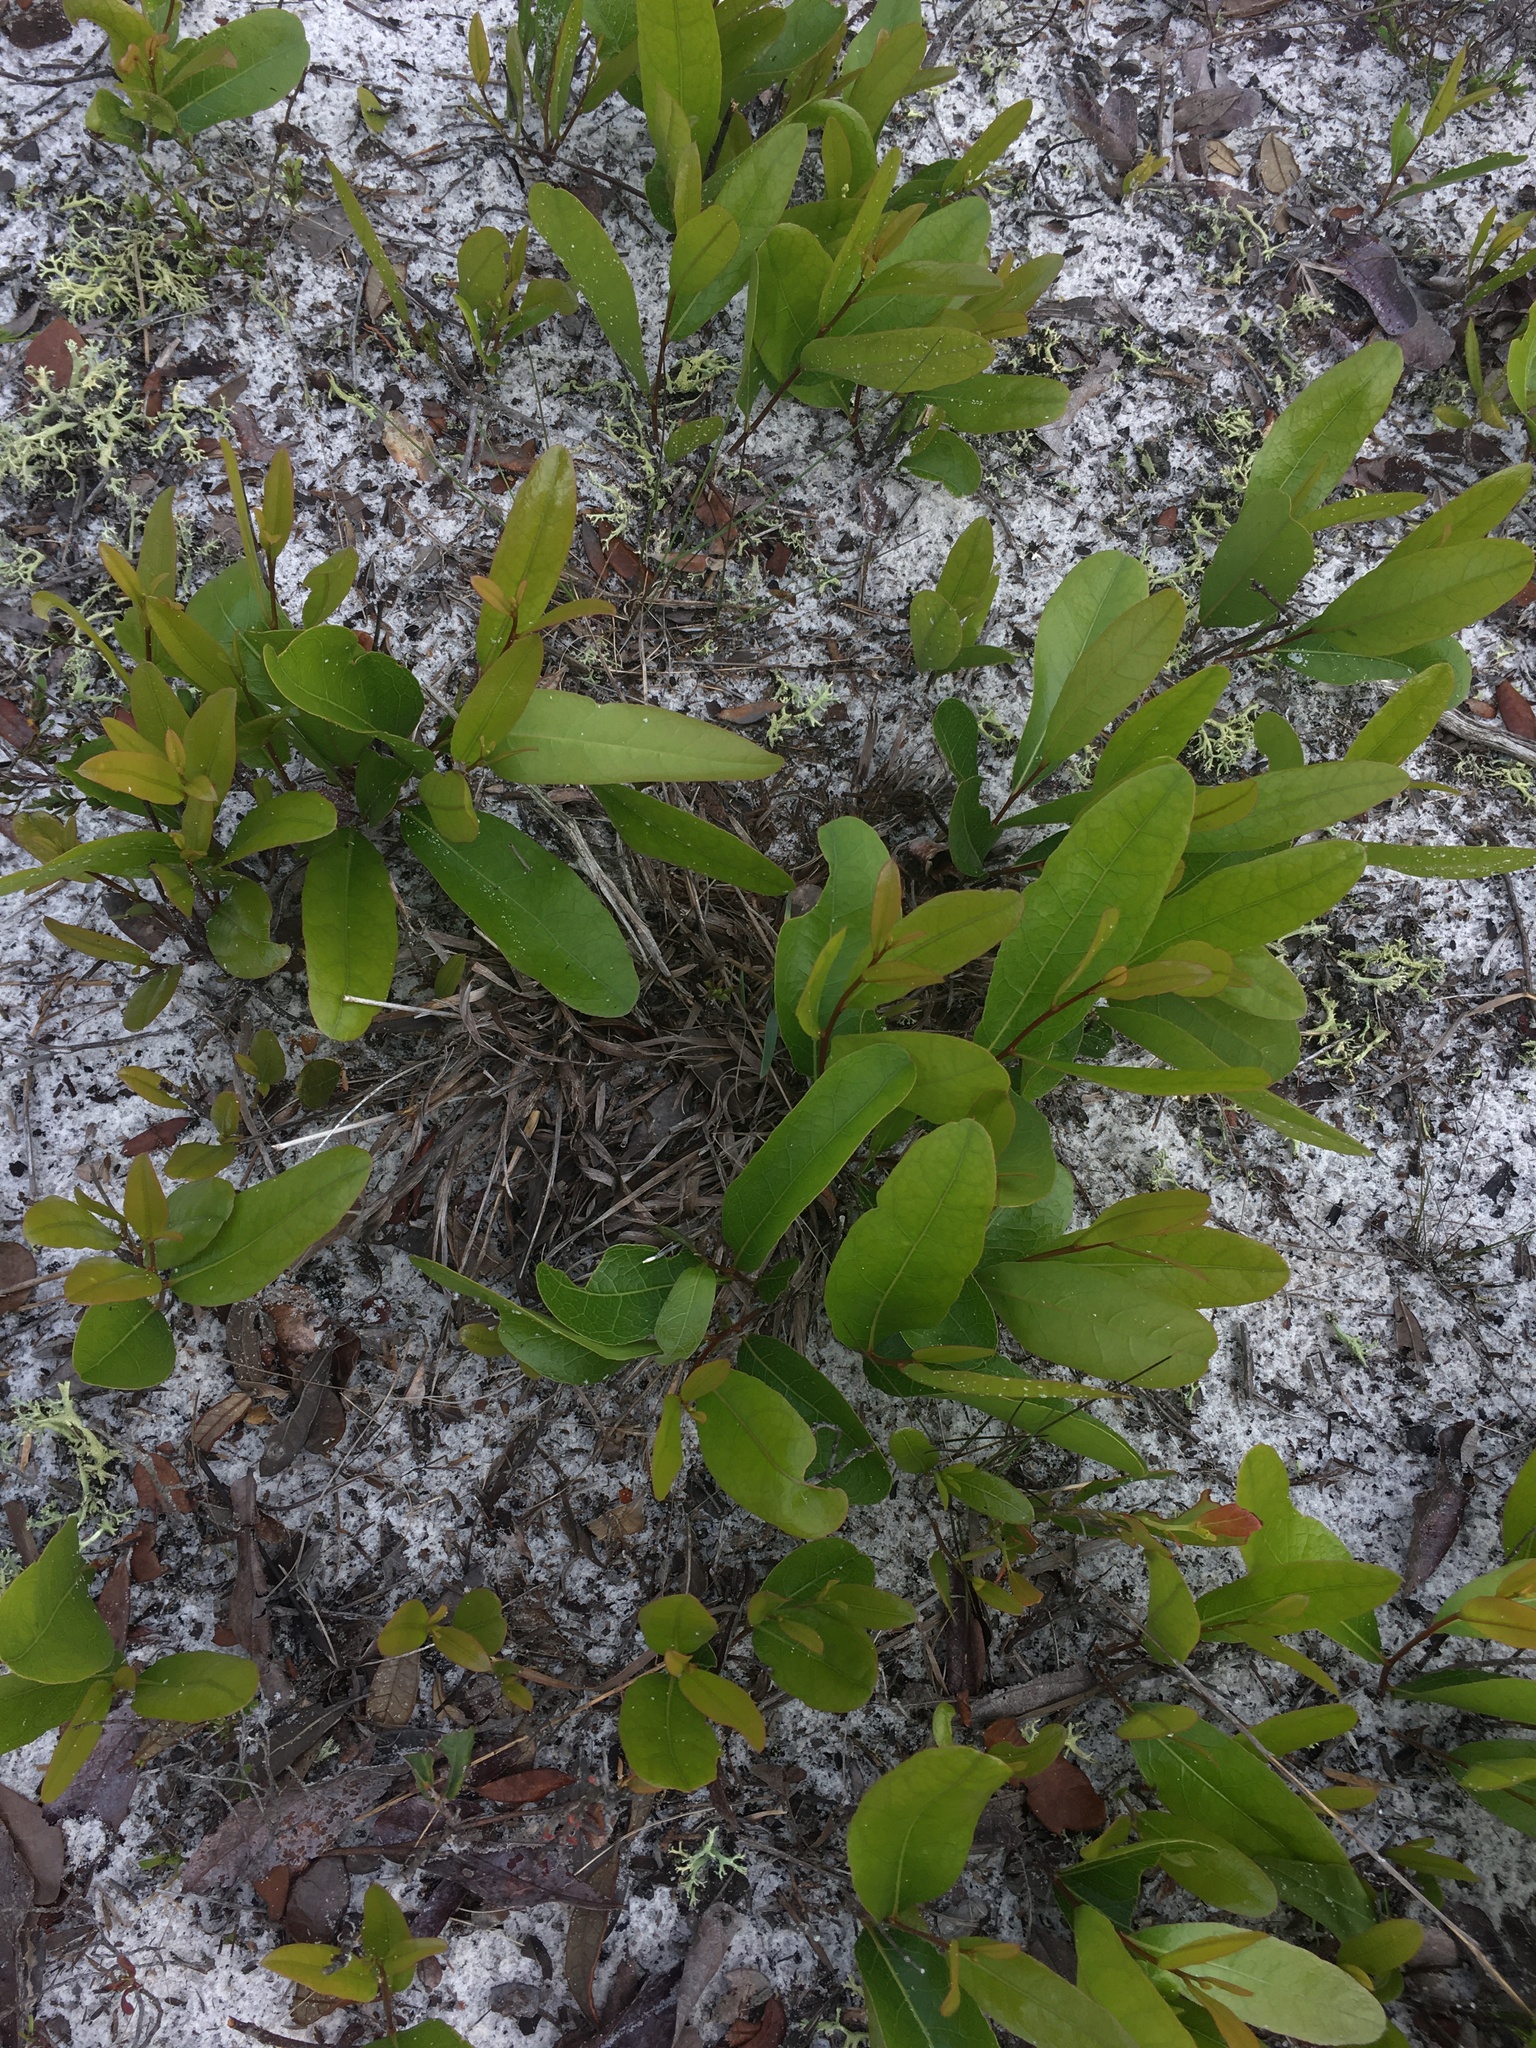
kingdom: Plantae
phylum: Tracheophyta
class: Magnoliopsida
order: Malpighiales
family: Chrysobalanaceae
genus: Geobalanus
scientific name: Geobalanus oblongifolius
